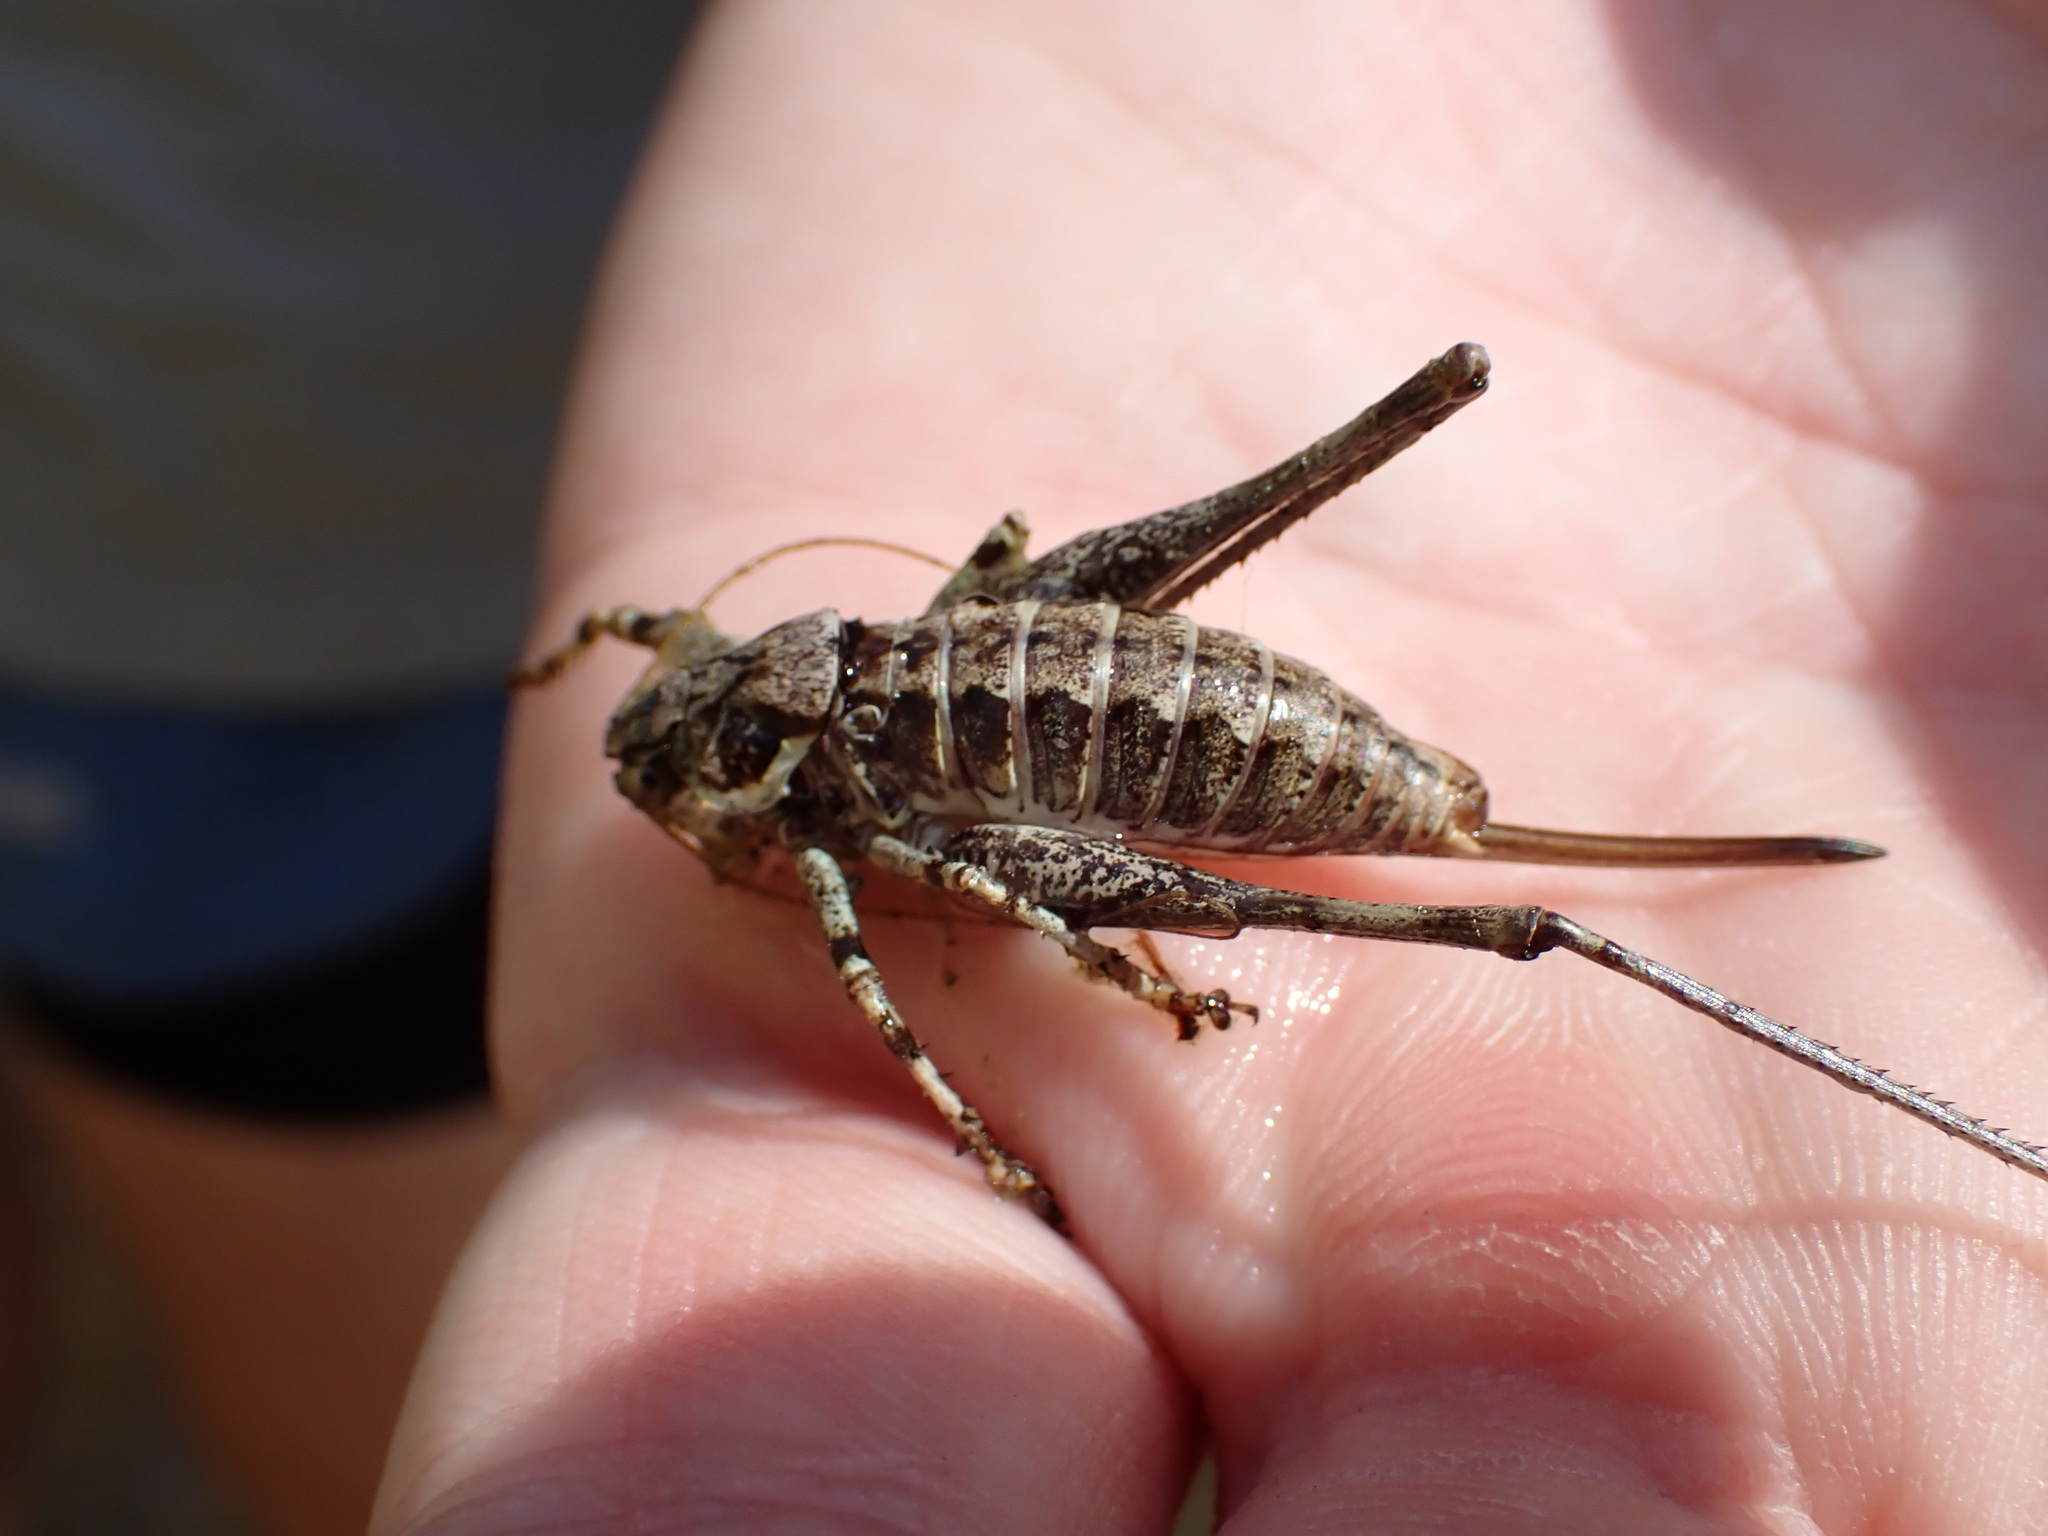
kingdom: Animalia
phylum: Arthropoda
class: Insecta
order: Orthoptera
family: Tettigoniidae
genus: Antaxius
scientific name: Antaxius pedestris
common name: Common mountain bush-cricket
